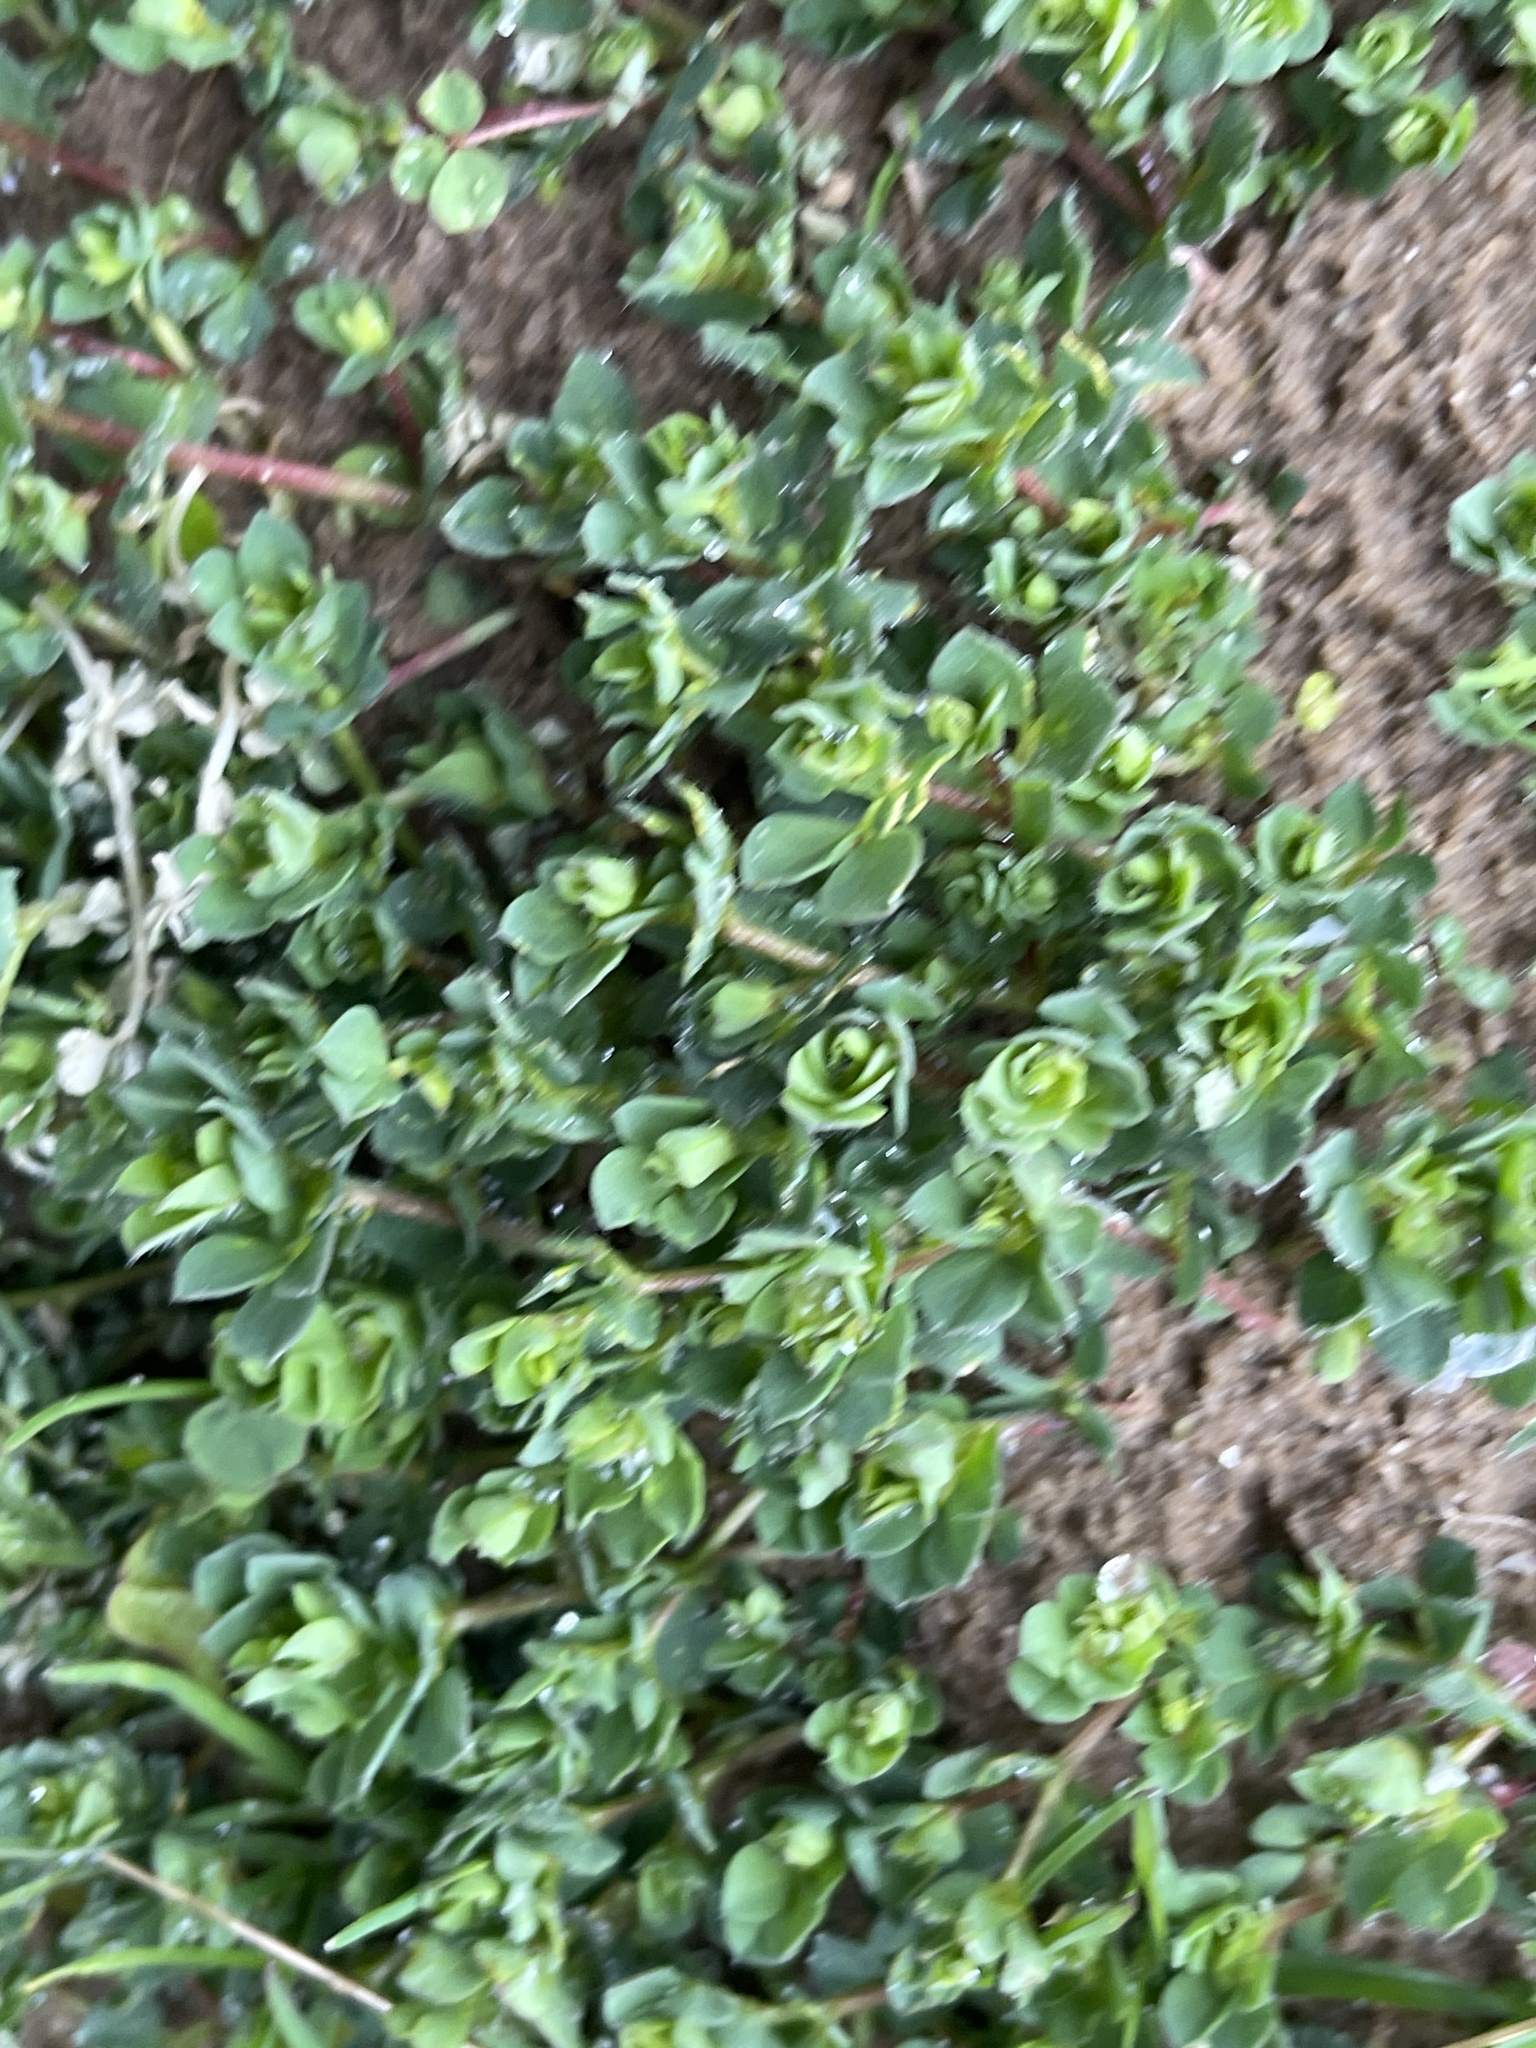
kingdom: Plantae
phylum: Tracheophyta
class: Magnoliopsida
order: Fabales
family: Fabaceae
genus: Lotus
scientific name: Lotus corniculatus
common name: Common bird's-foot-trefoil
